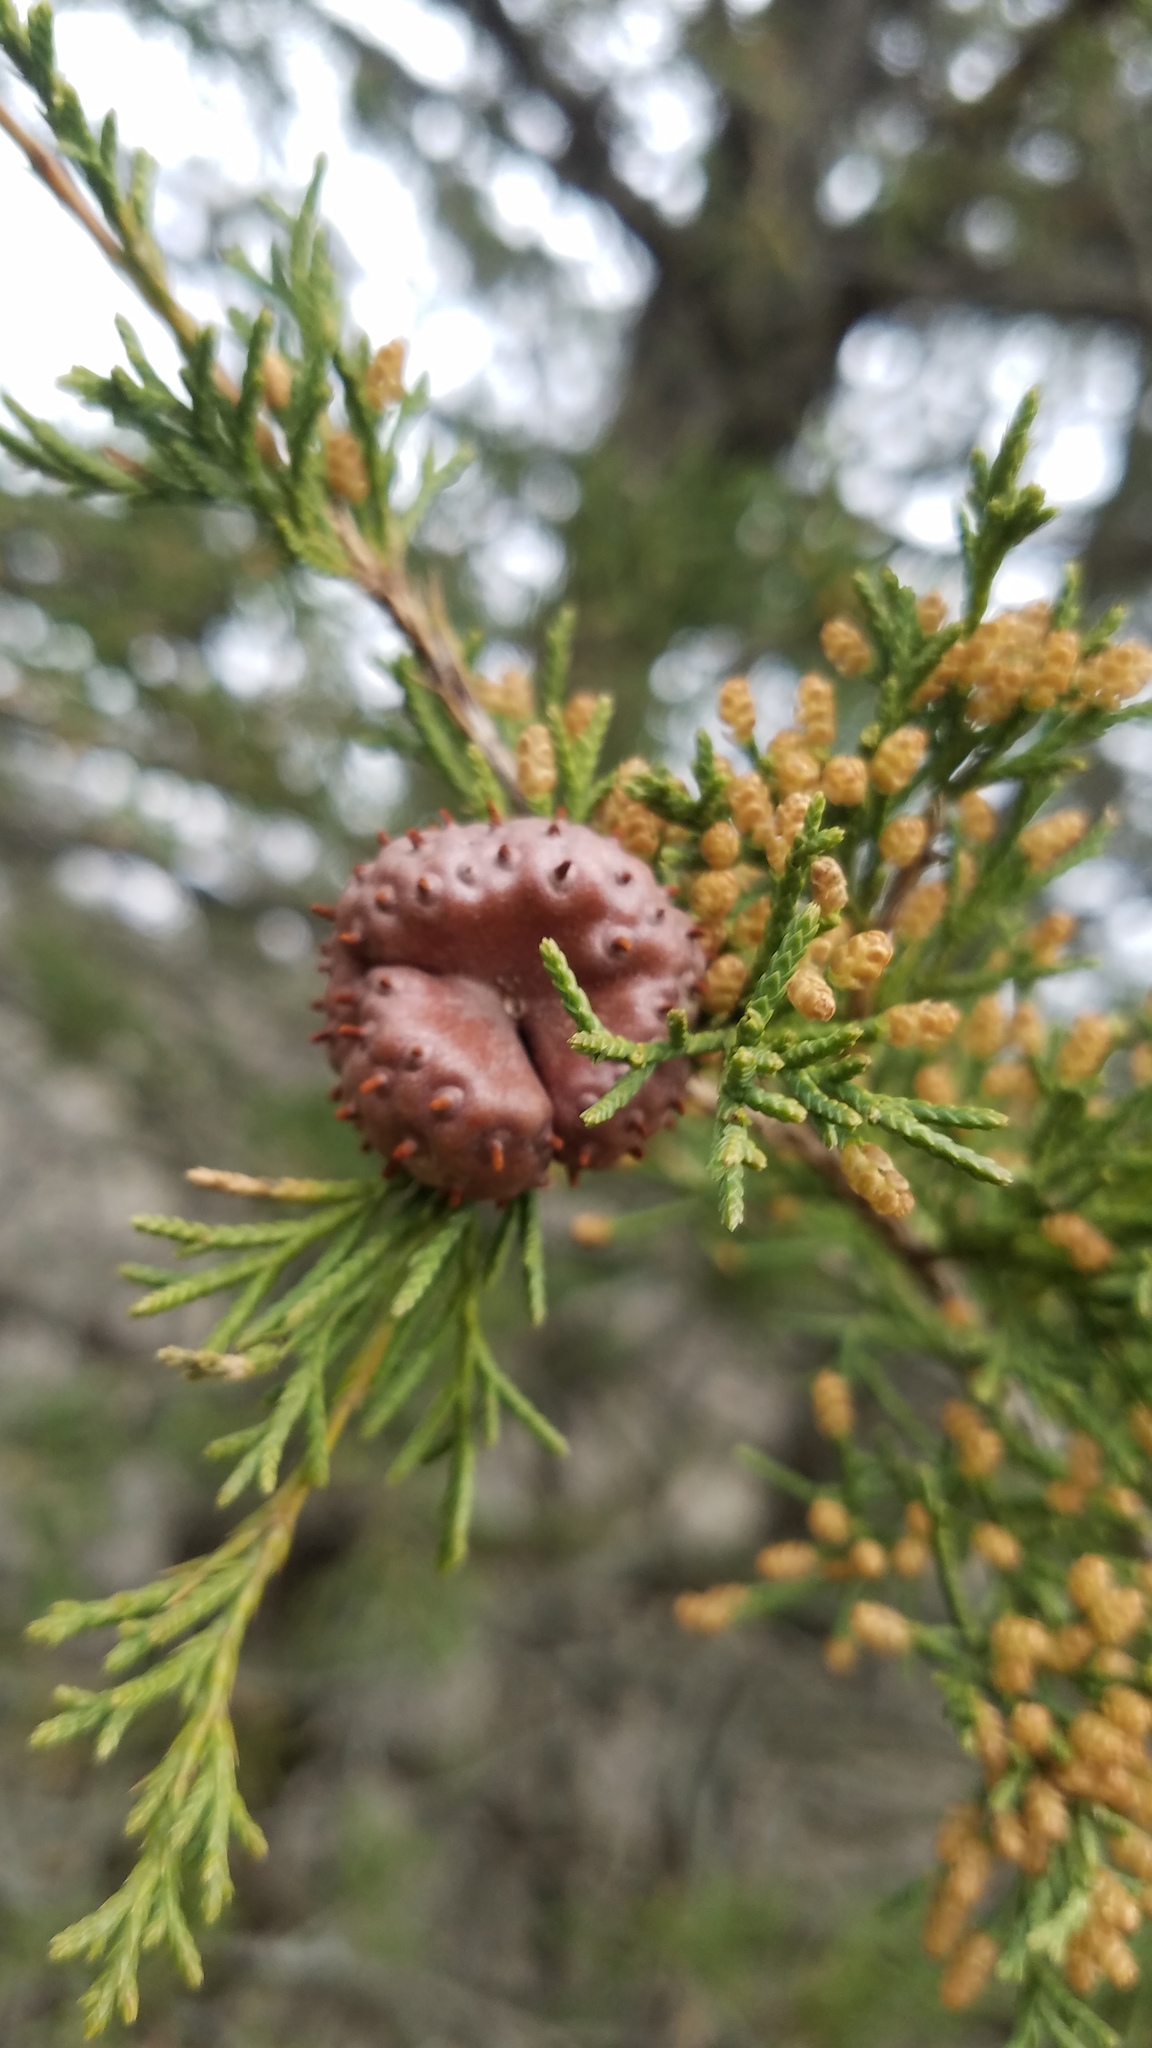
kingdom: Fungi
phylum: Basidiomycota
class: Pucciniomycetes
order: Pucciniales
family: Gymnosporangiaceae
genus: Gymnosporangium
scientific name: Gymnosporangium juniperi-virginianae
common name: Juniper-apple rust
